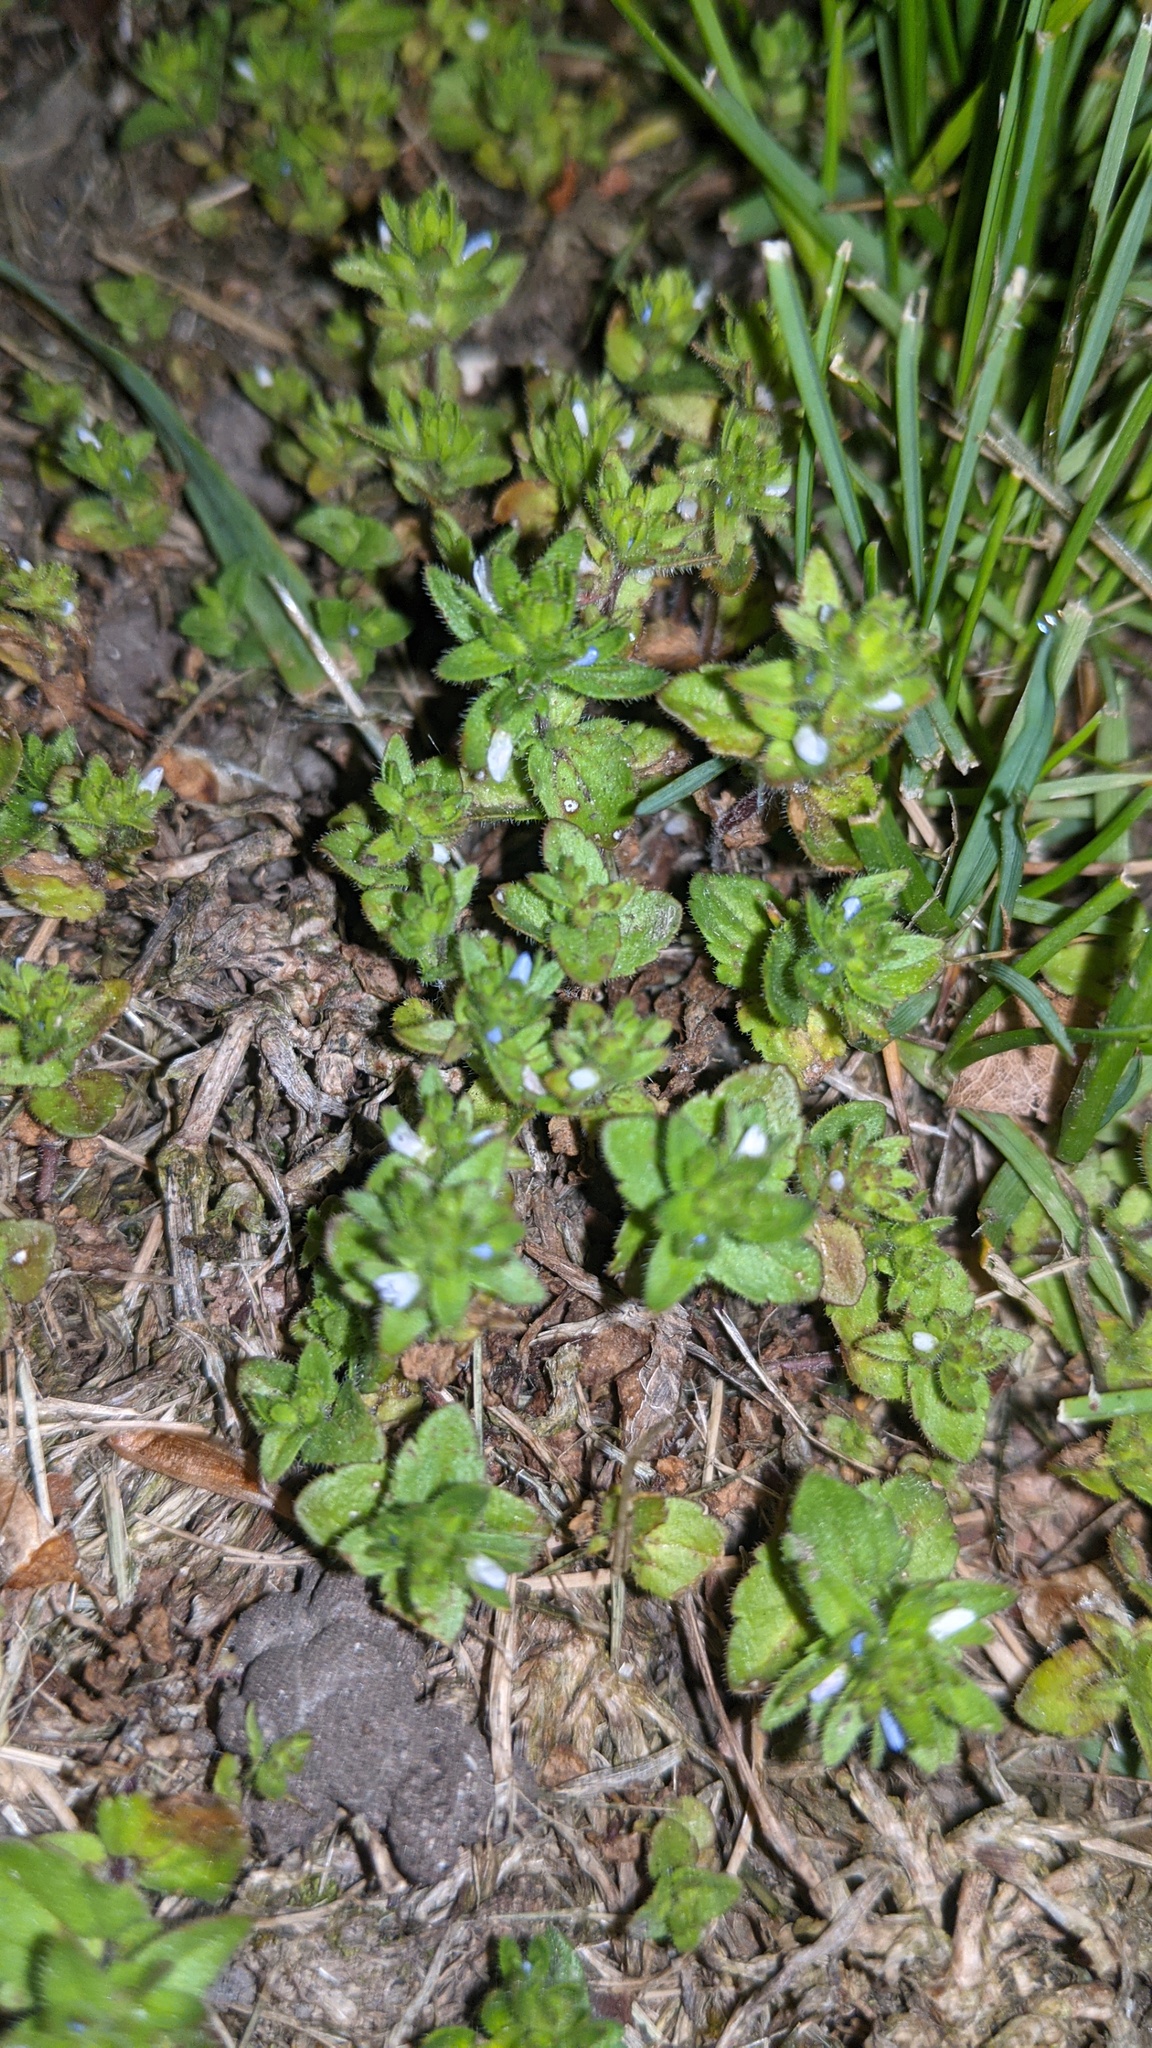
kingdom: Plantae
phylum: Tracheophyta
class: Magnoliopsida
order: Lamiales
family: Plantaginaceae
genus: Veronica
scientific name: Veronica arvensis
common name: Corn speedwell
